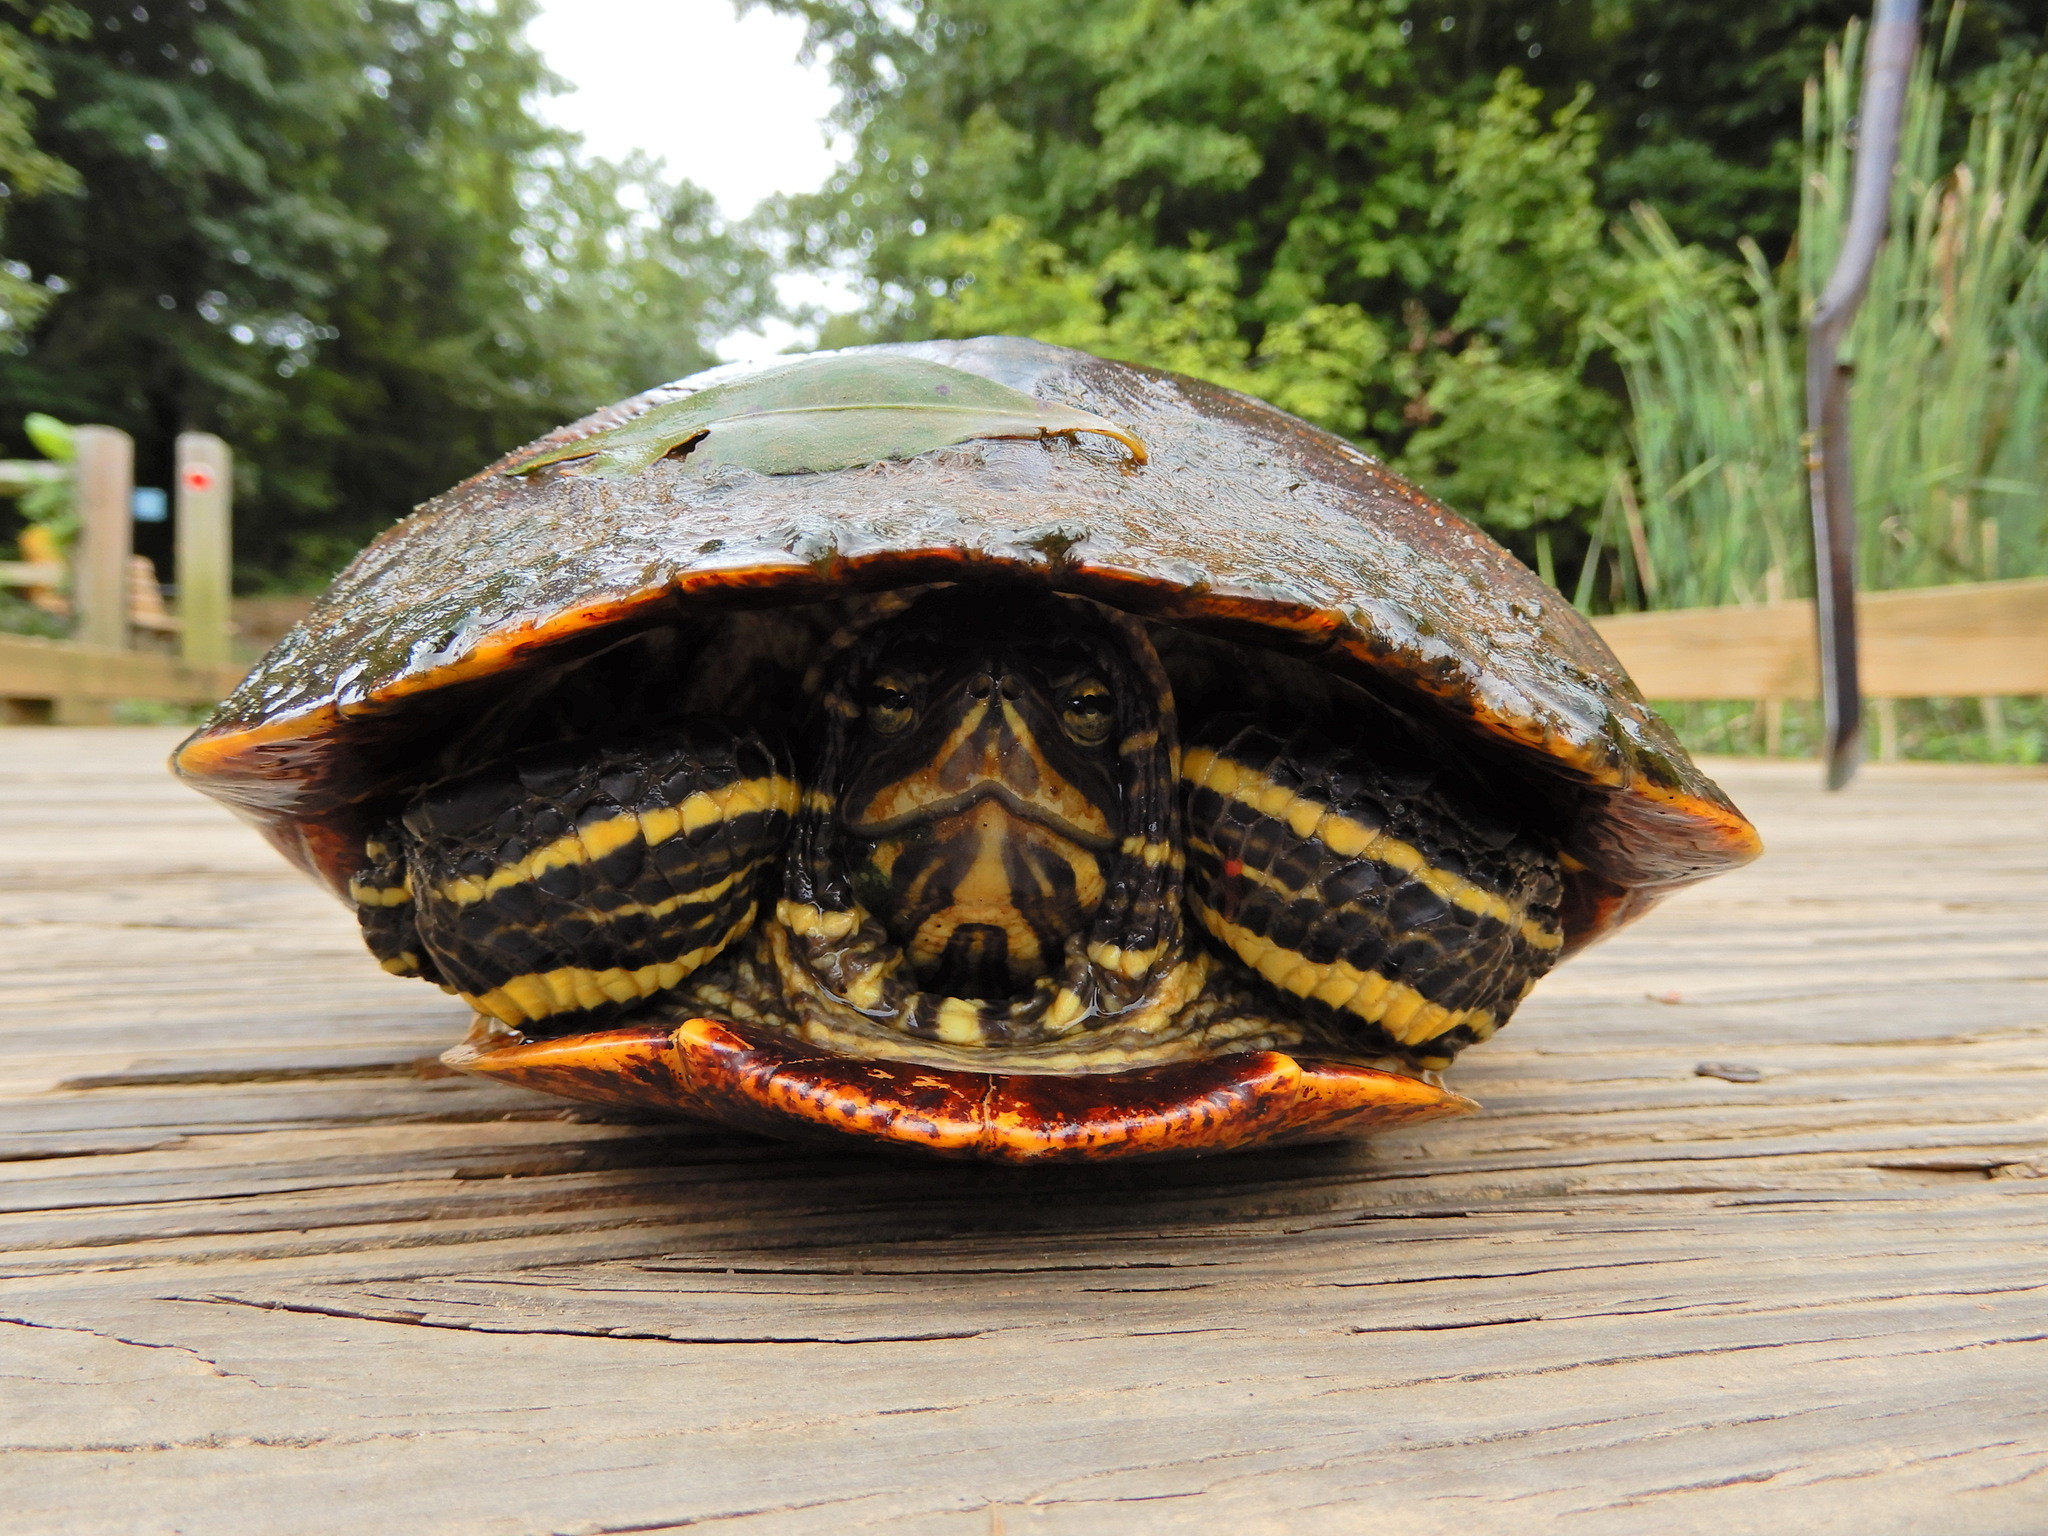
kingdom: Animalia
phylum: Chordata
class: Testudines
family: Emydidae
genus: Trachemys
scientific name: Trachemys scripta
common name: Slider
